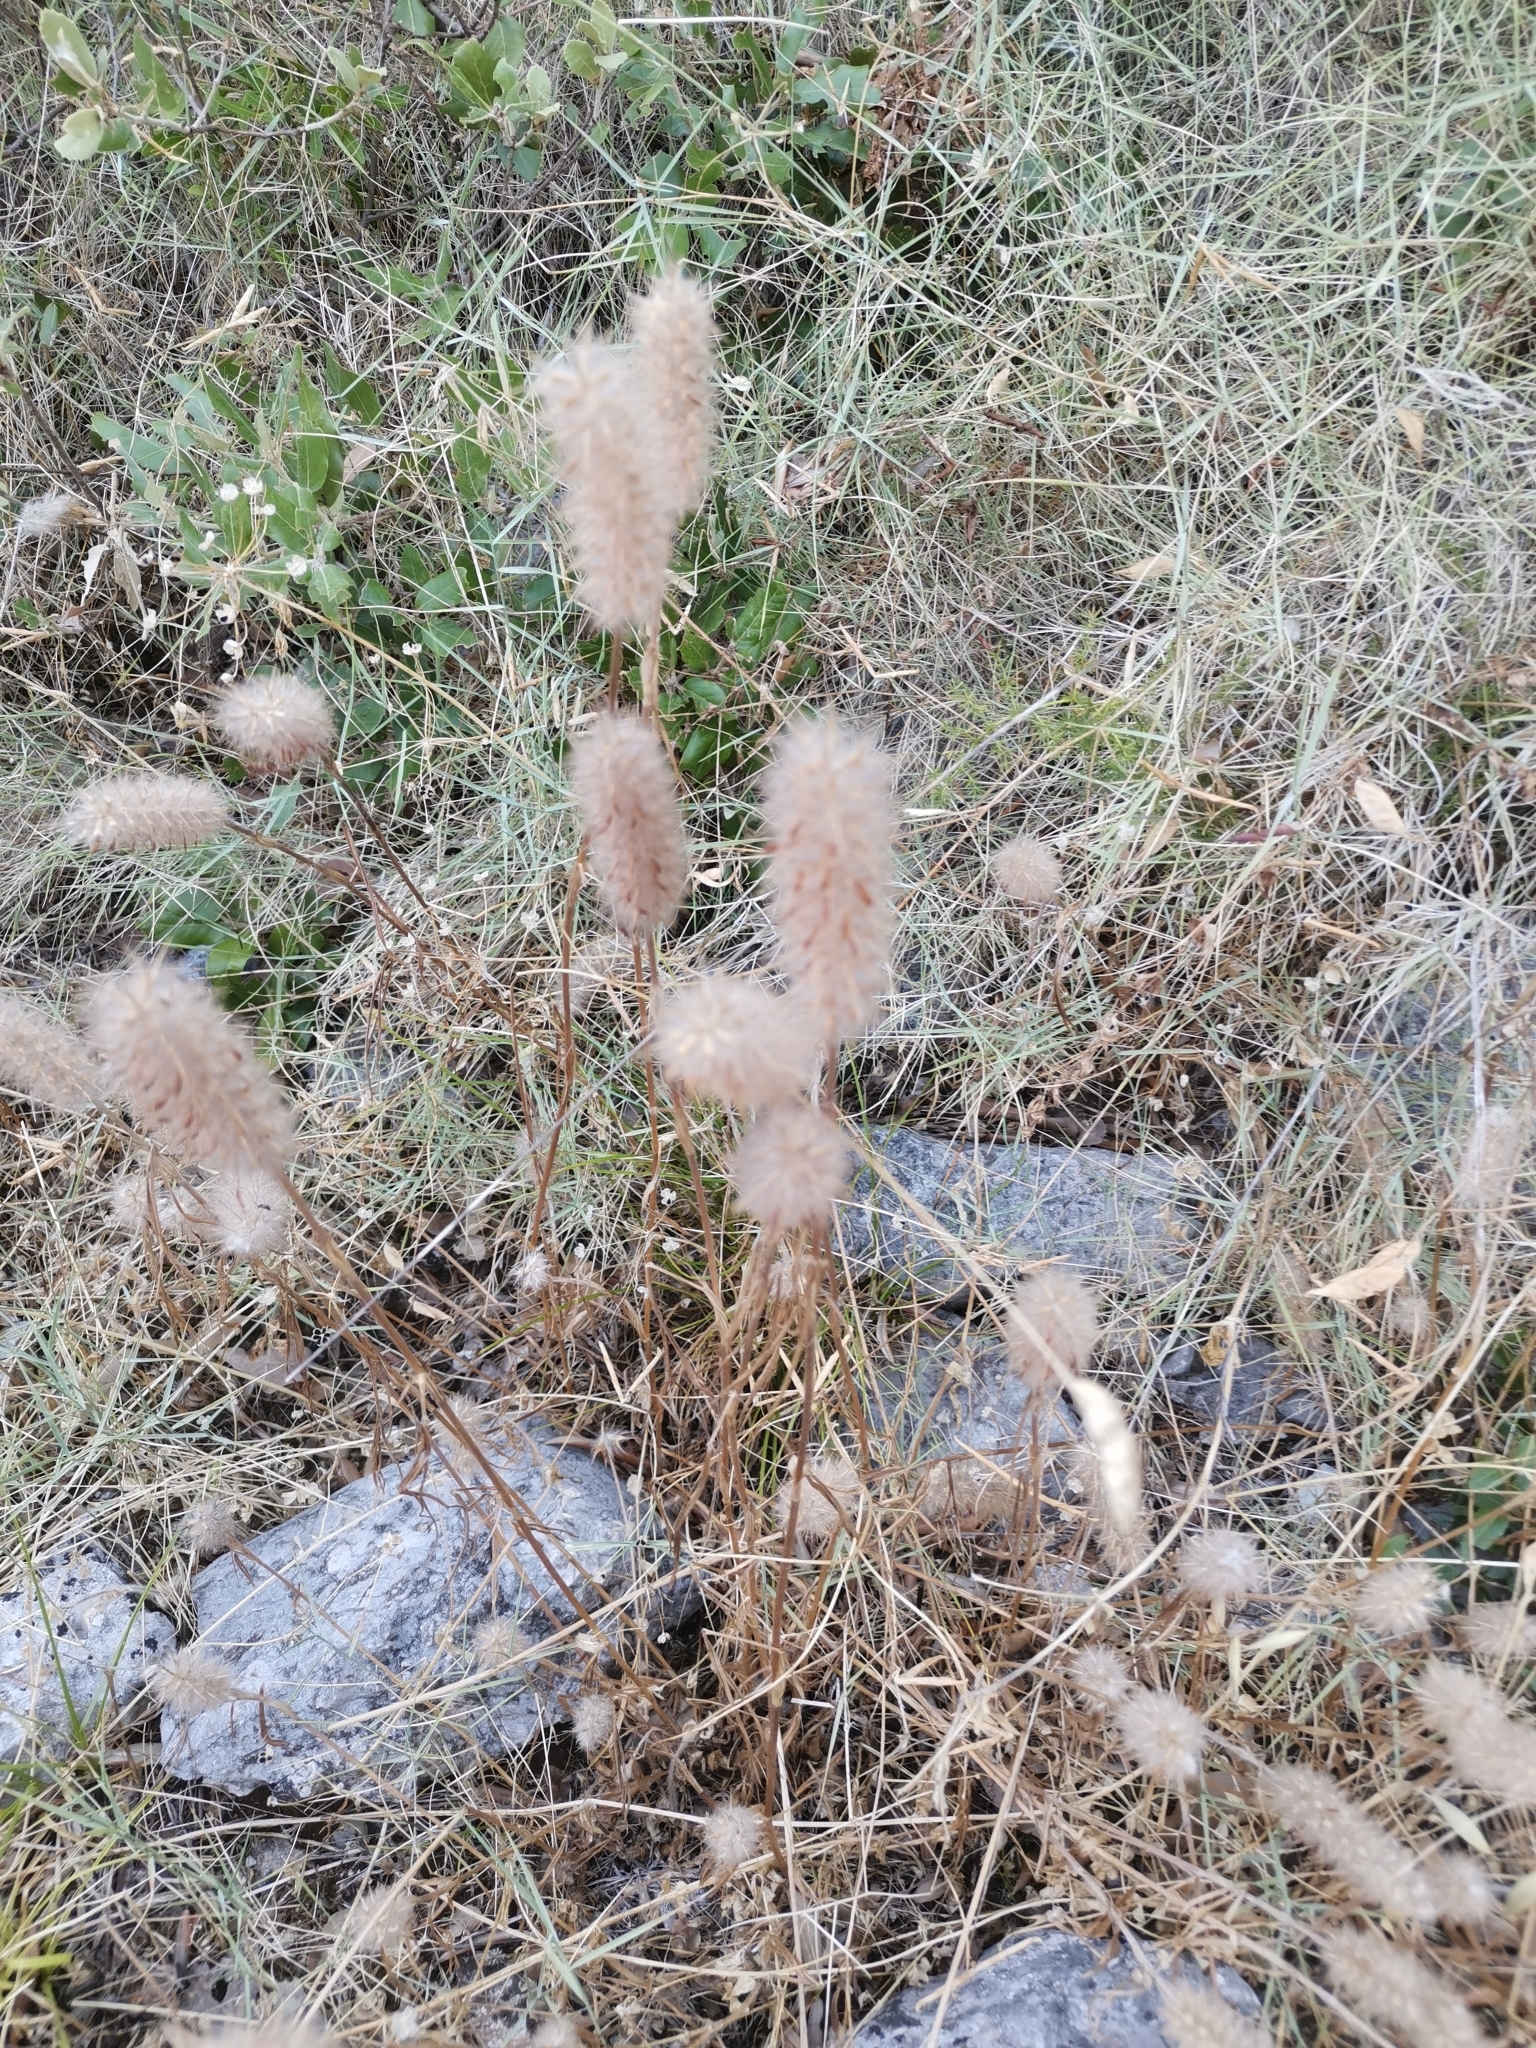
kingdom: Plantae
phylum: Tracheophyta
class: Magnoliopsida
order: Fabales
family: Fabaceae
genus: Trifolium
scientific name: Trifolium angustifolium
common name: Narrow clover
